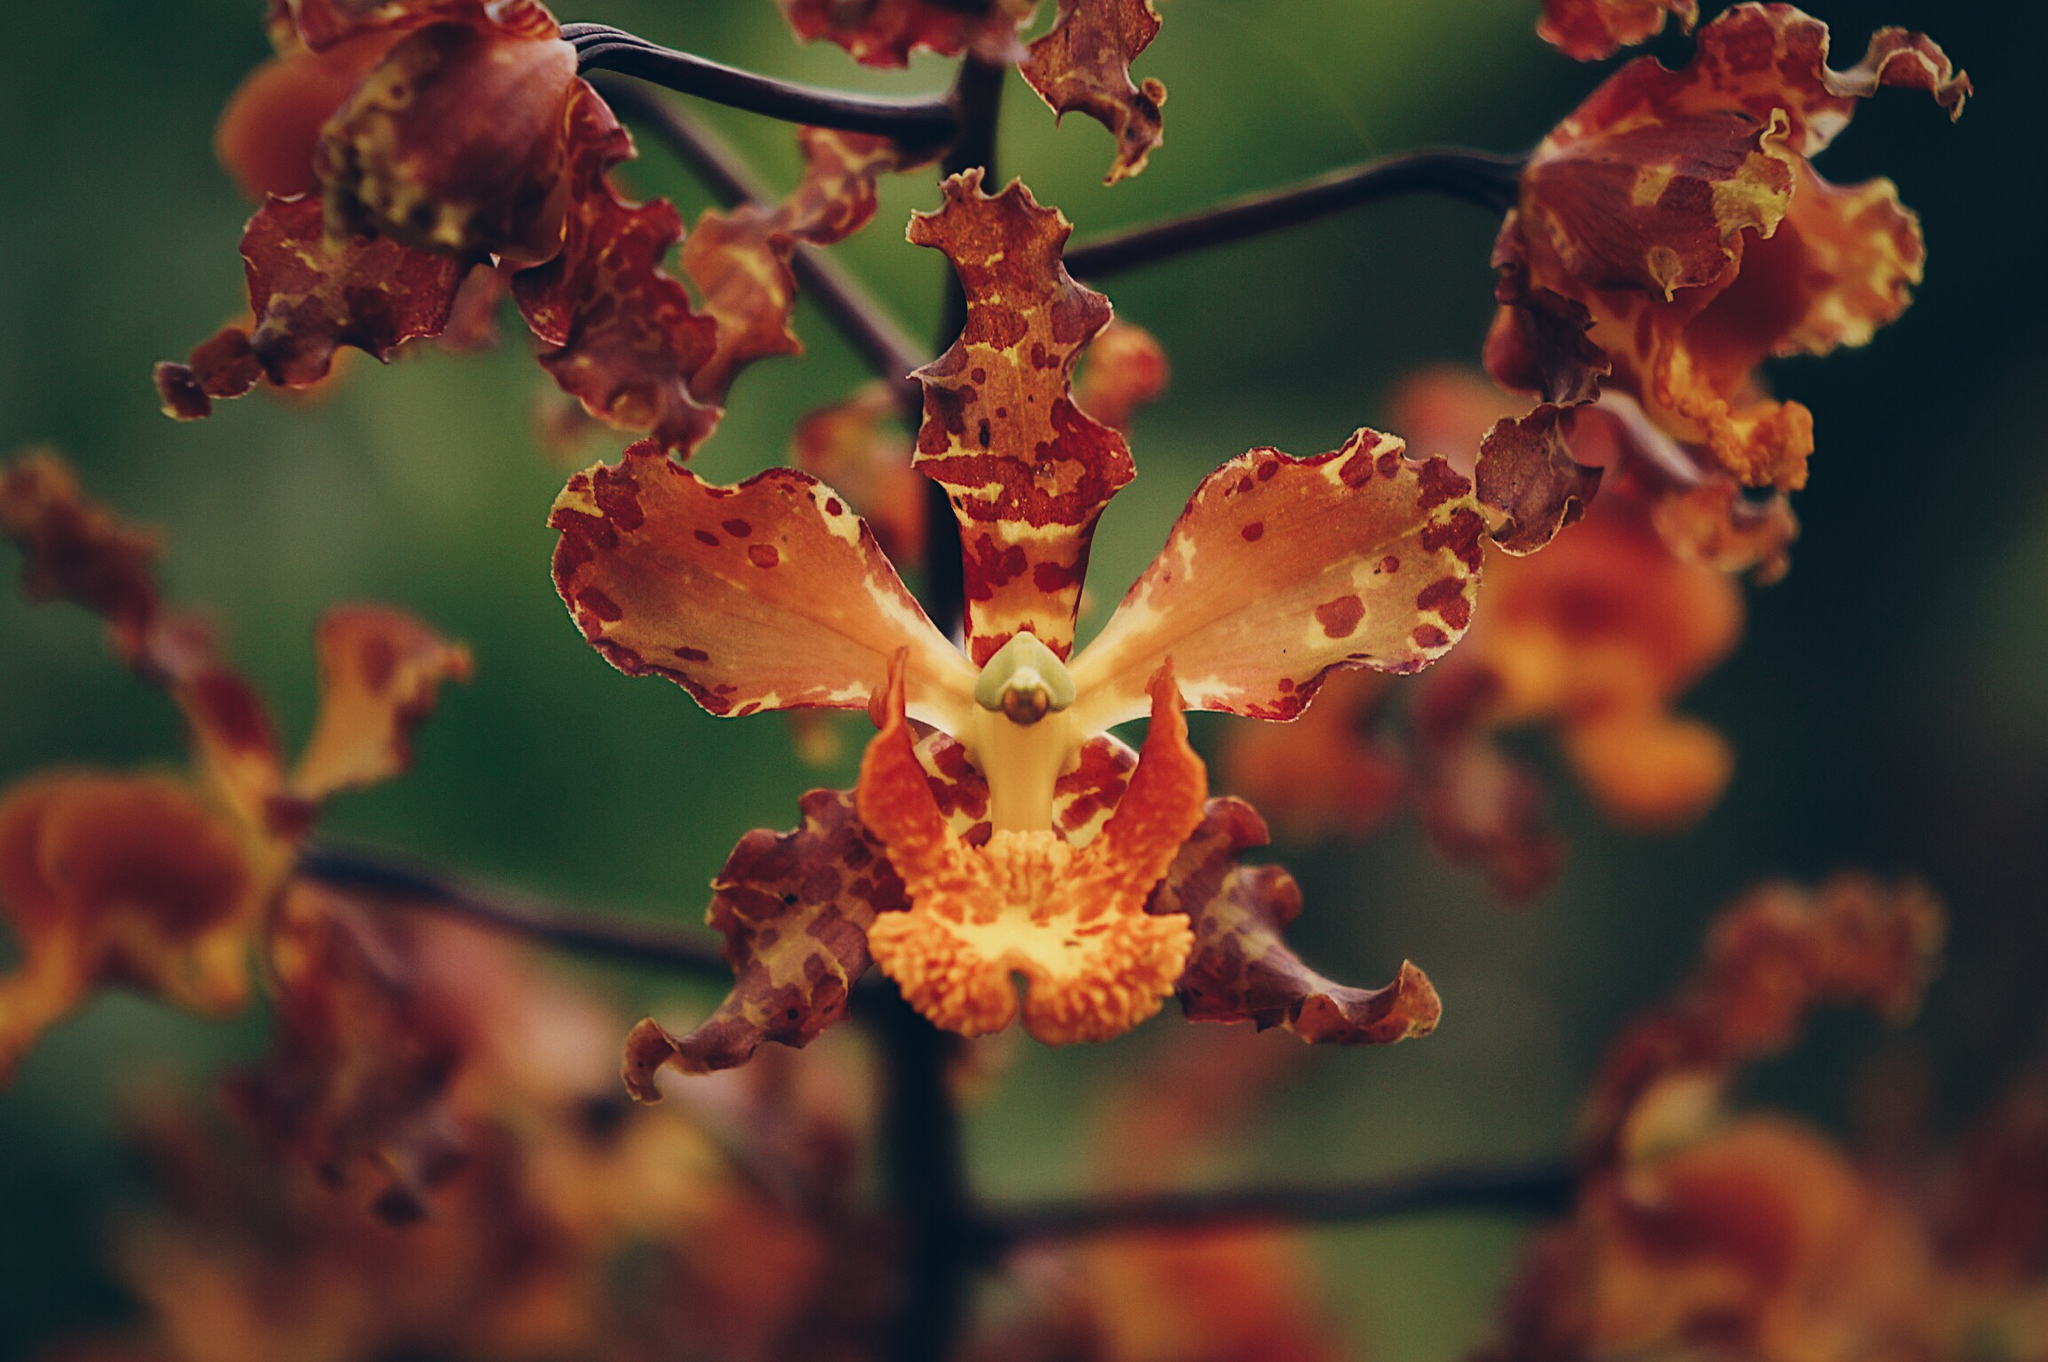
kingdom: Plantae
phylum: Tracheophyta
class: Liliopsida
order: Asparagales
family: Orchidaceae
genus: Cyrtopodium
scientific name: Cyrtopodium macrobulbon
